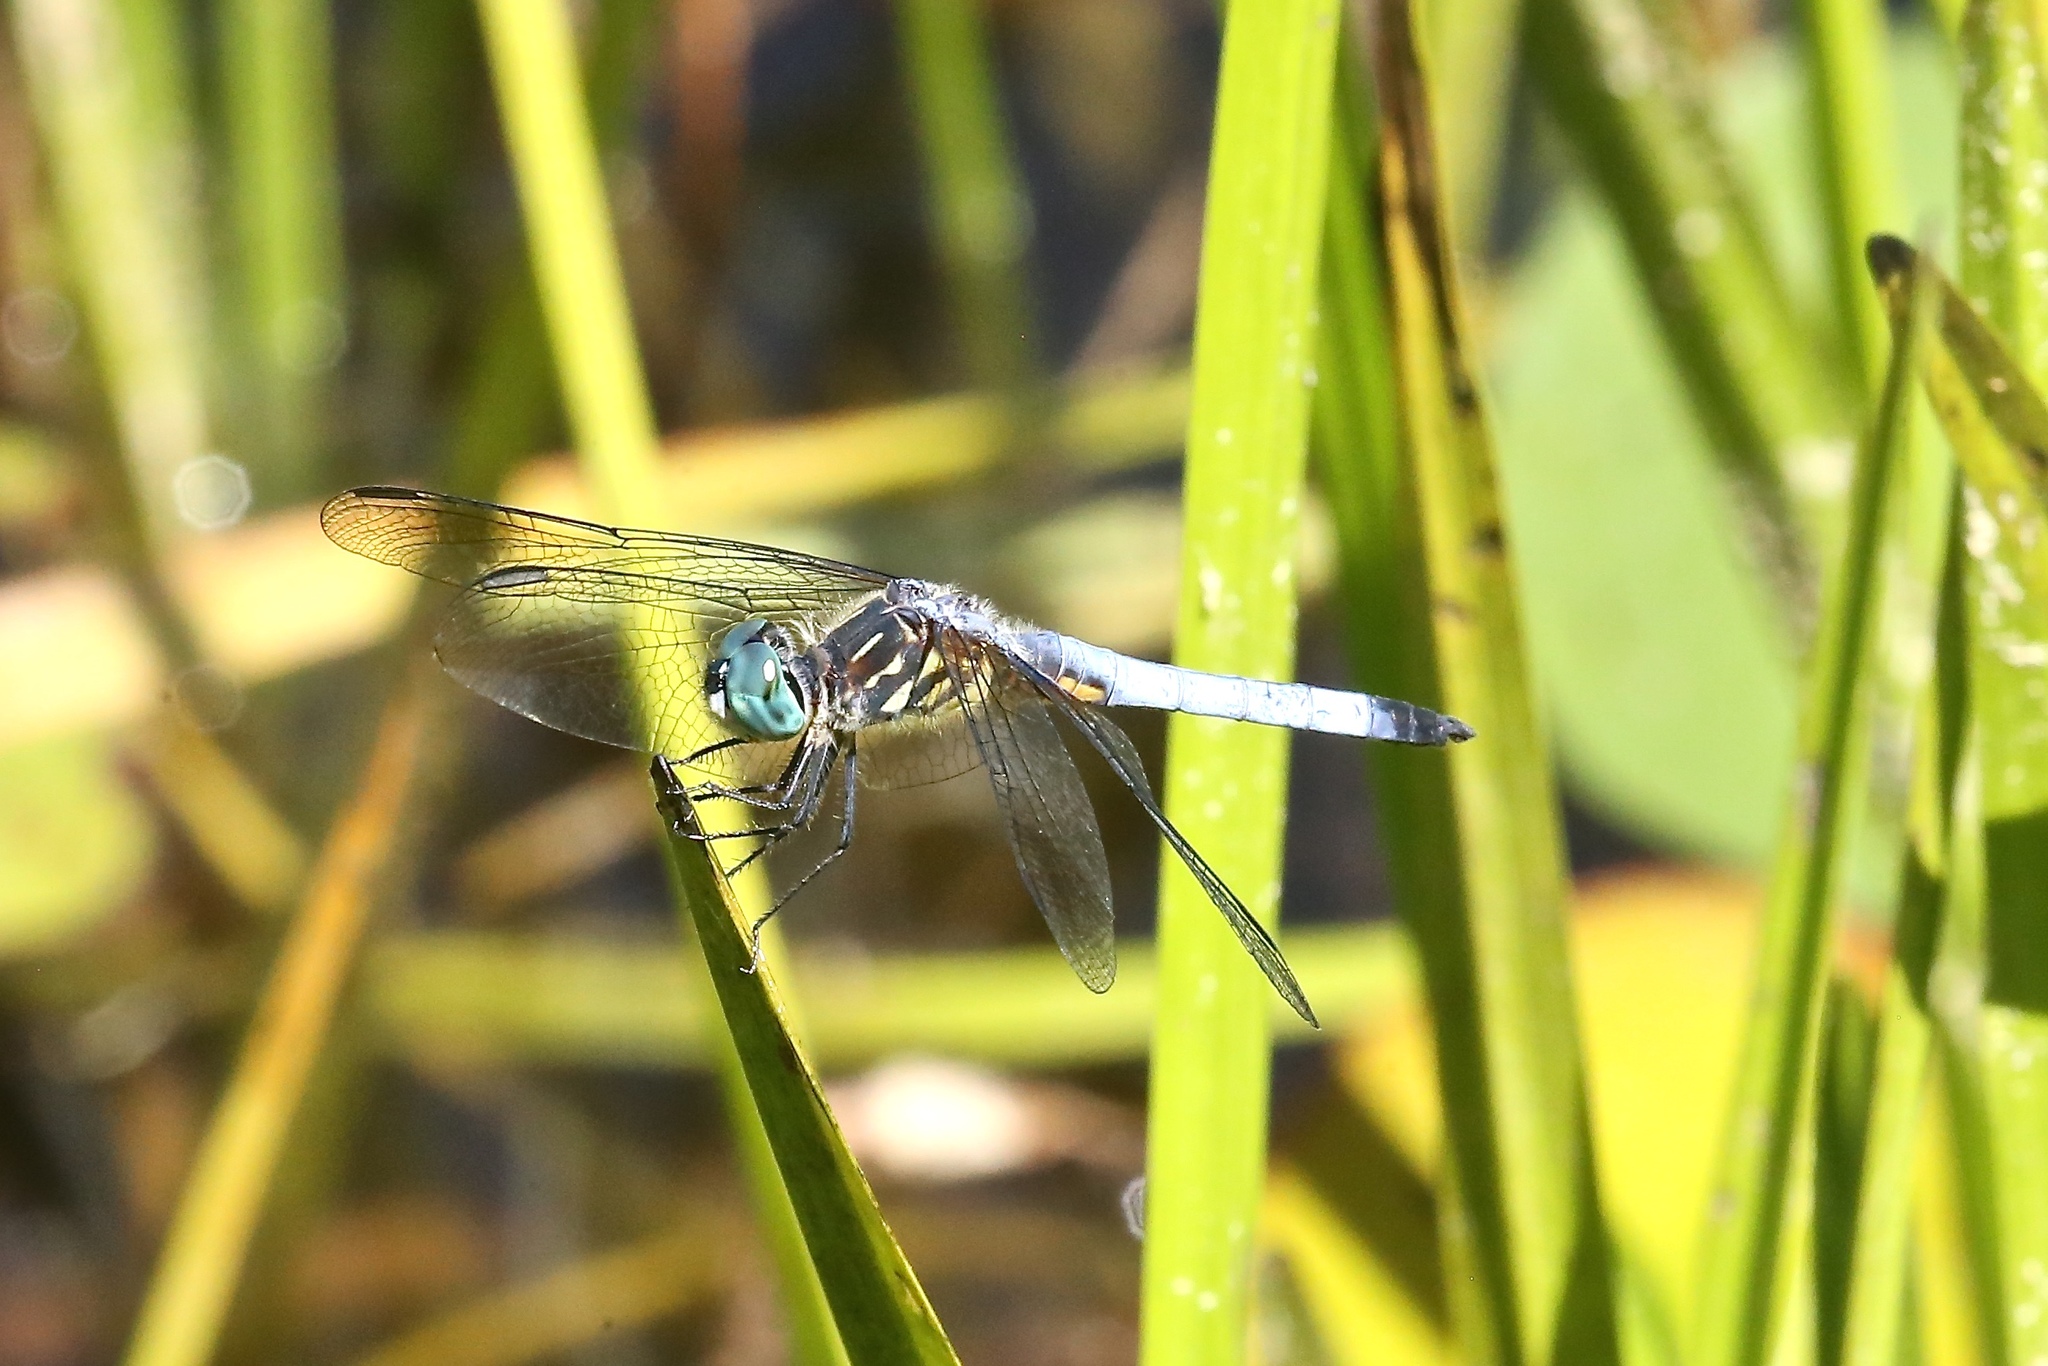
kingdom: Animalia
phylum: Arthropoda
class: Insecta
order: Odonata
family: Libellulidae
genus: Pachydiplax
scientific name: Pachydiplax longipennis
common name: Blue dasher
